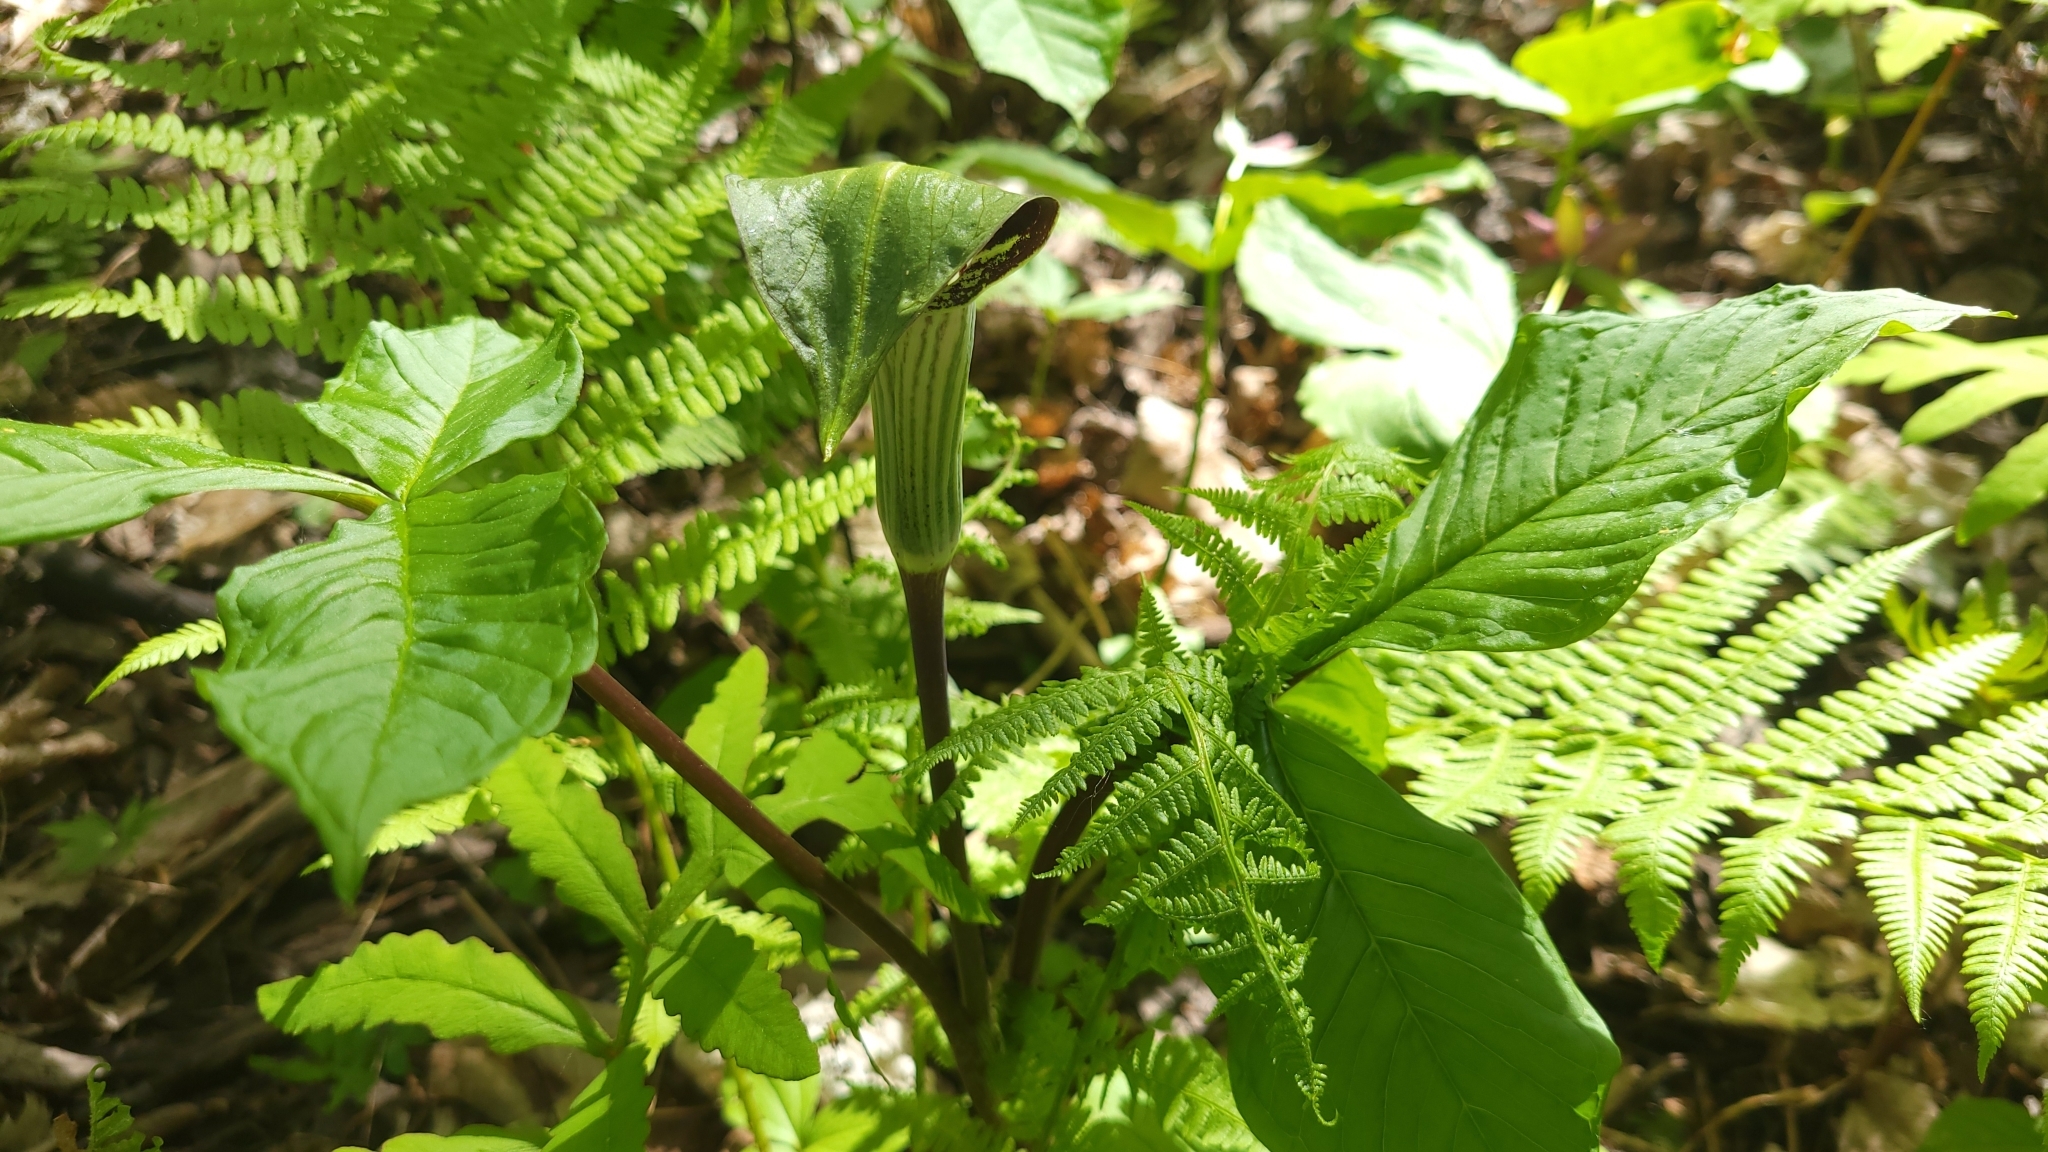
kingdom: Plantae
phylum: Tracheophyta
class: Liliopsida
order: Alismatales
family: Araceae
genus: Arisaema
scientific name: Arisaema triphyllum
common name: Jack-in-the-pulpit
